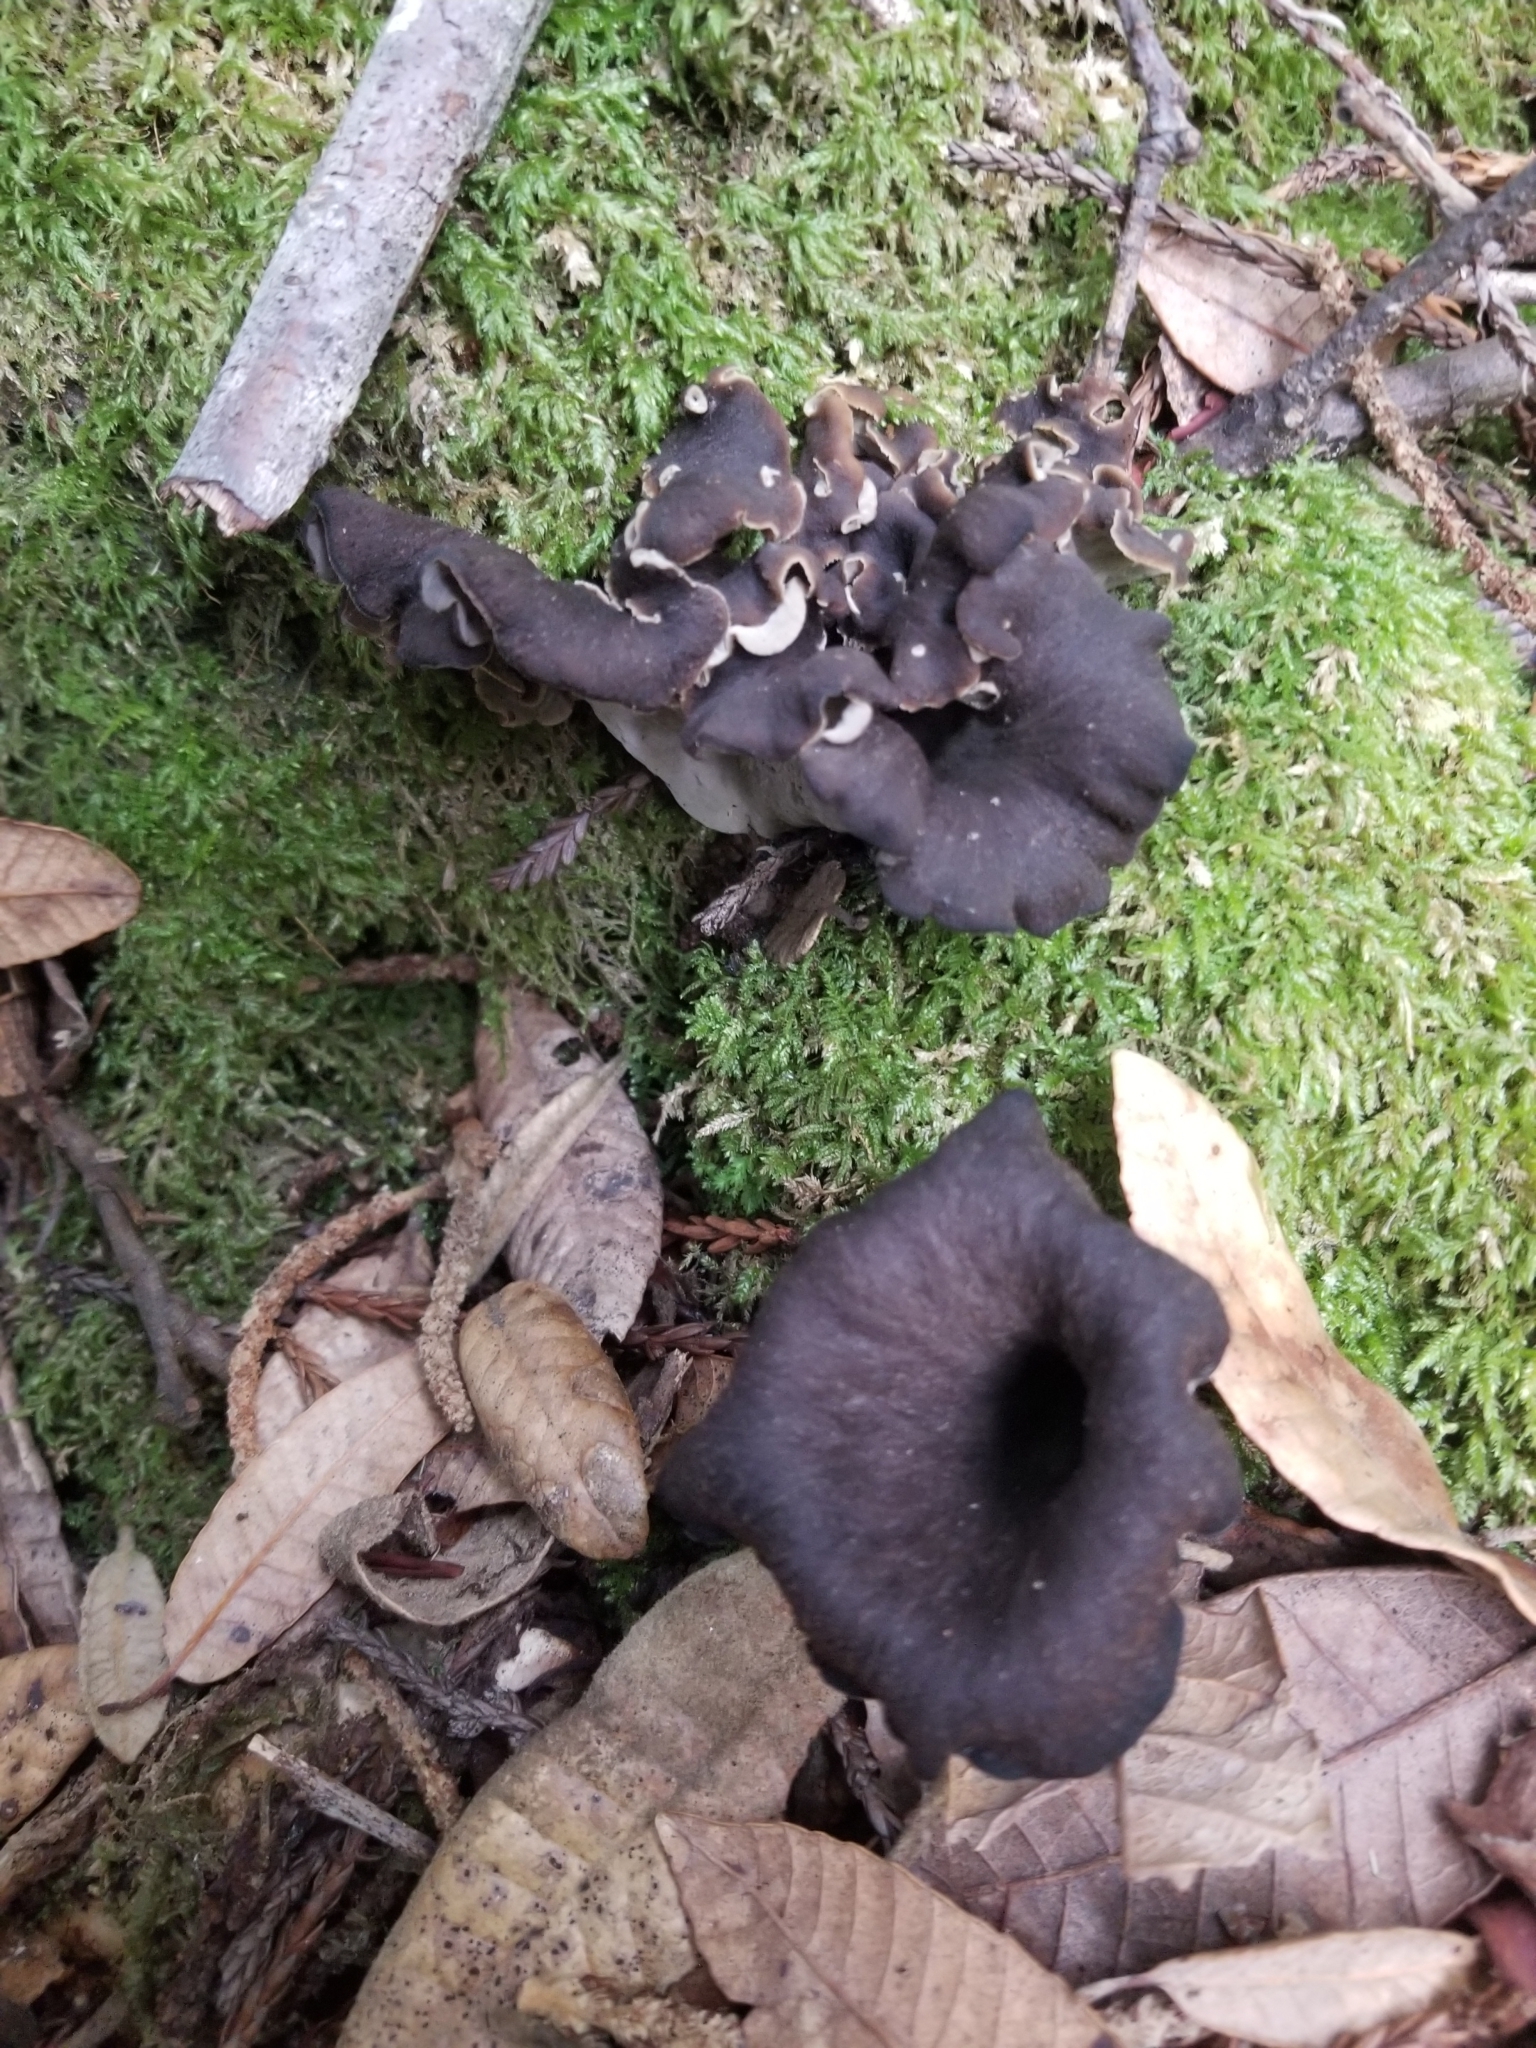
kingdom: Fungi
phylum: Basidiomycota
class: Agaricomycetes
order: Cantharellales
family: Hydnaceae
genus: Craterellus
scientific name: Craterellus calicornucopioides
